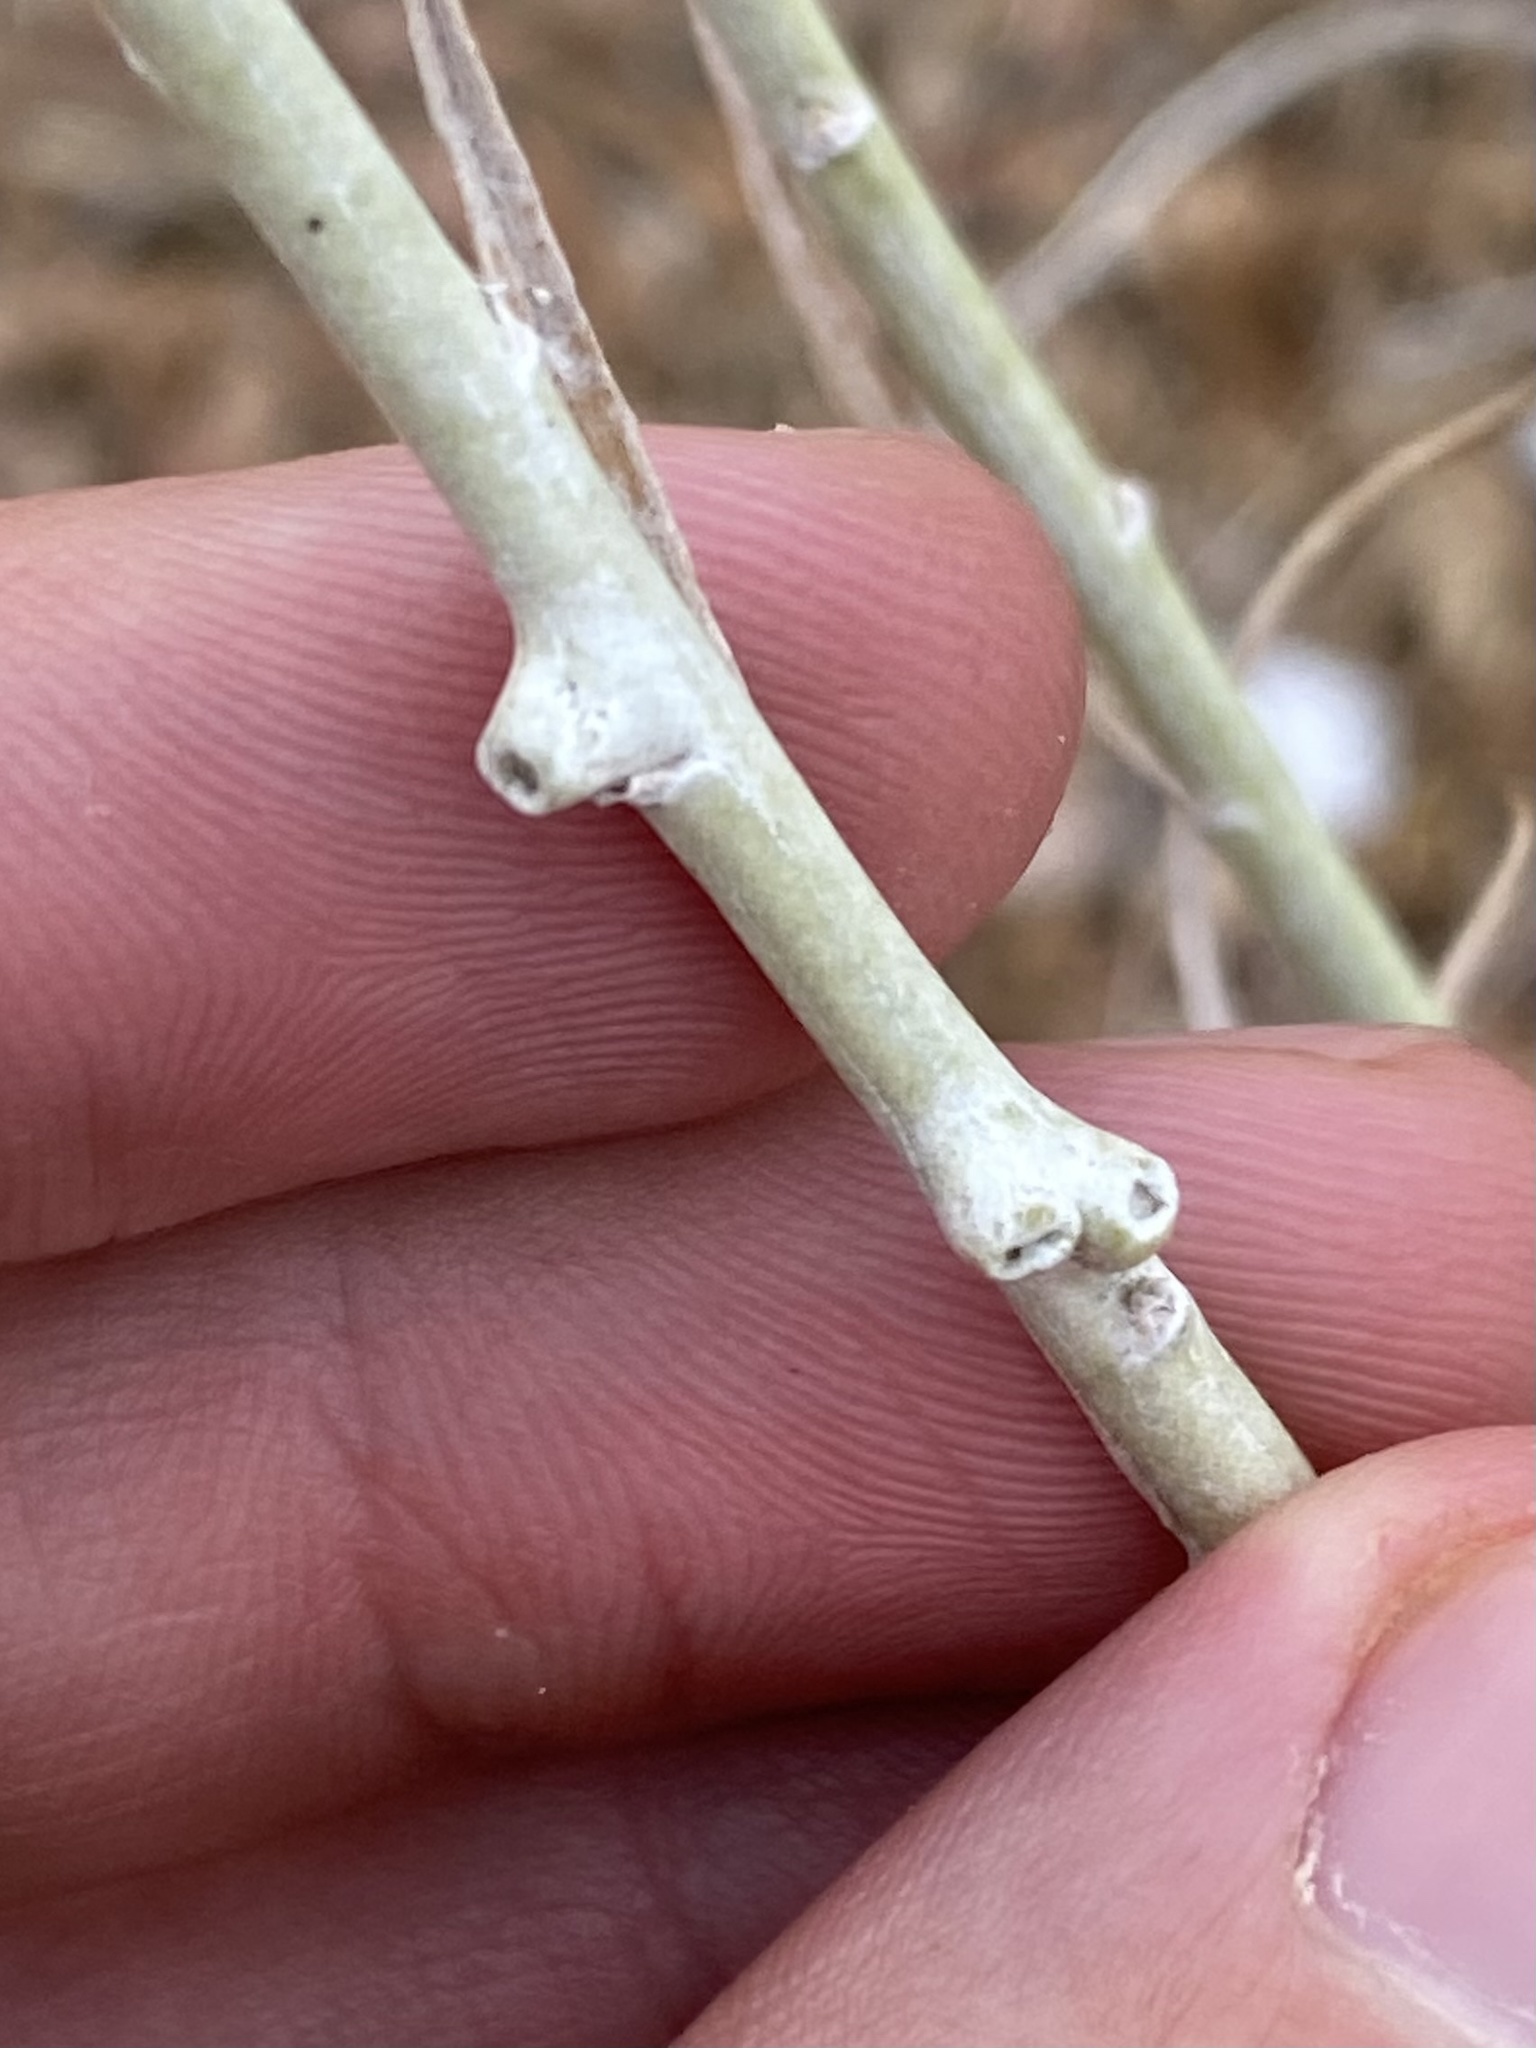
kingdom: Animalia
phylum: Arthropoda
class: Insecta
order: Diptera
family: Cecidomyiidae
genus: Rhopalomyia
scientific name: Rhopalomyia chrysothamni
